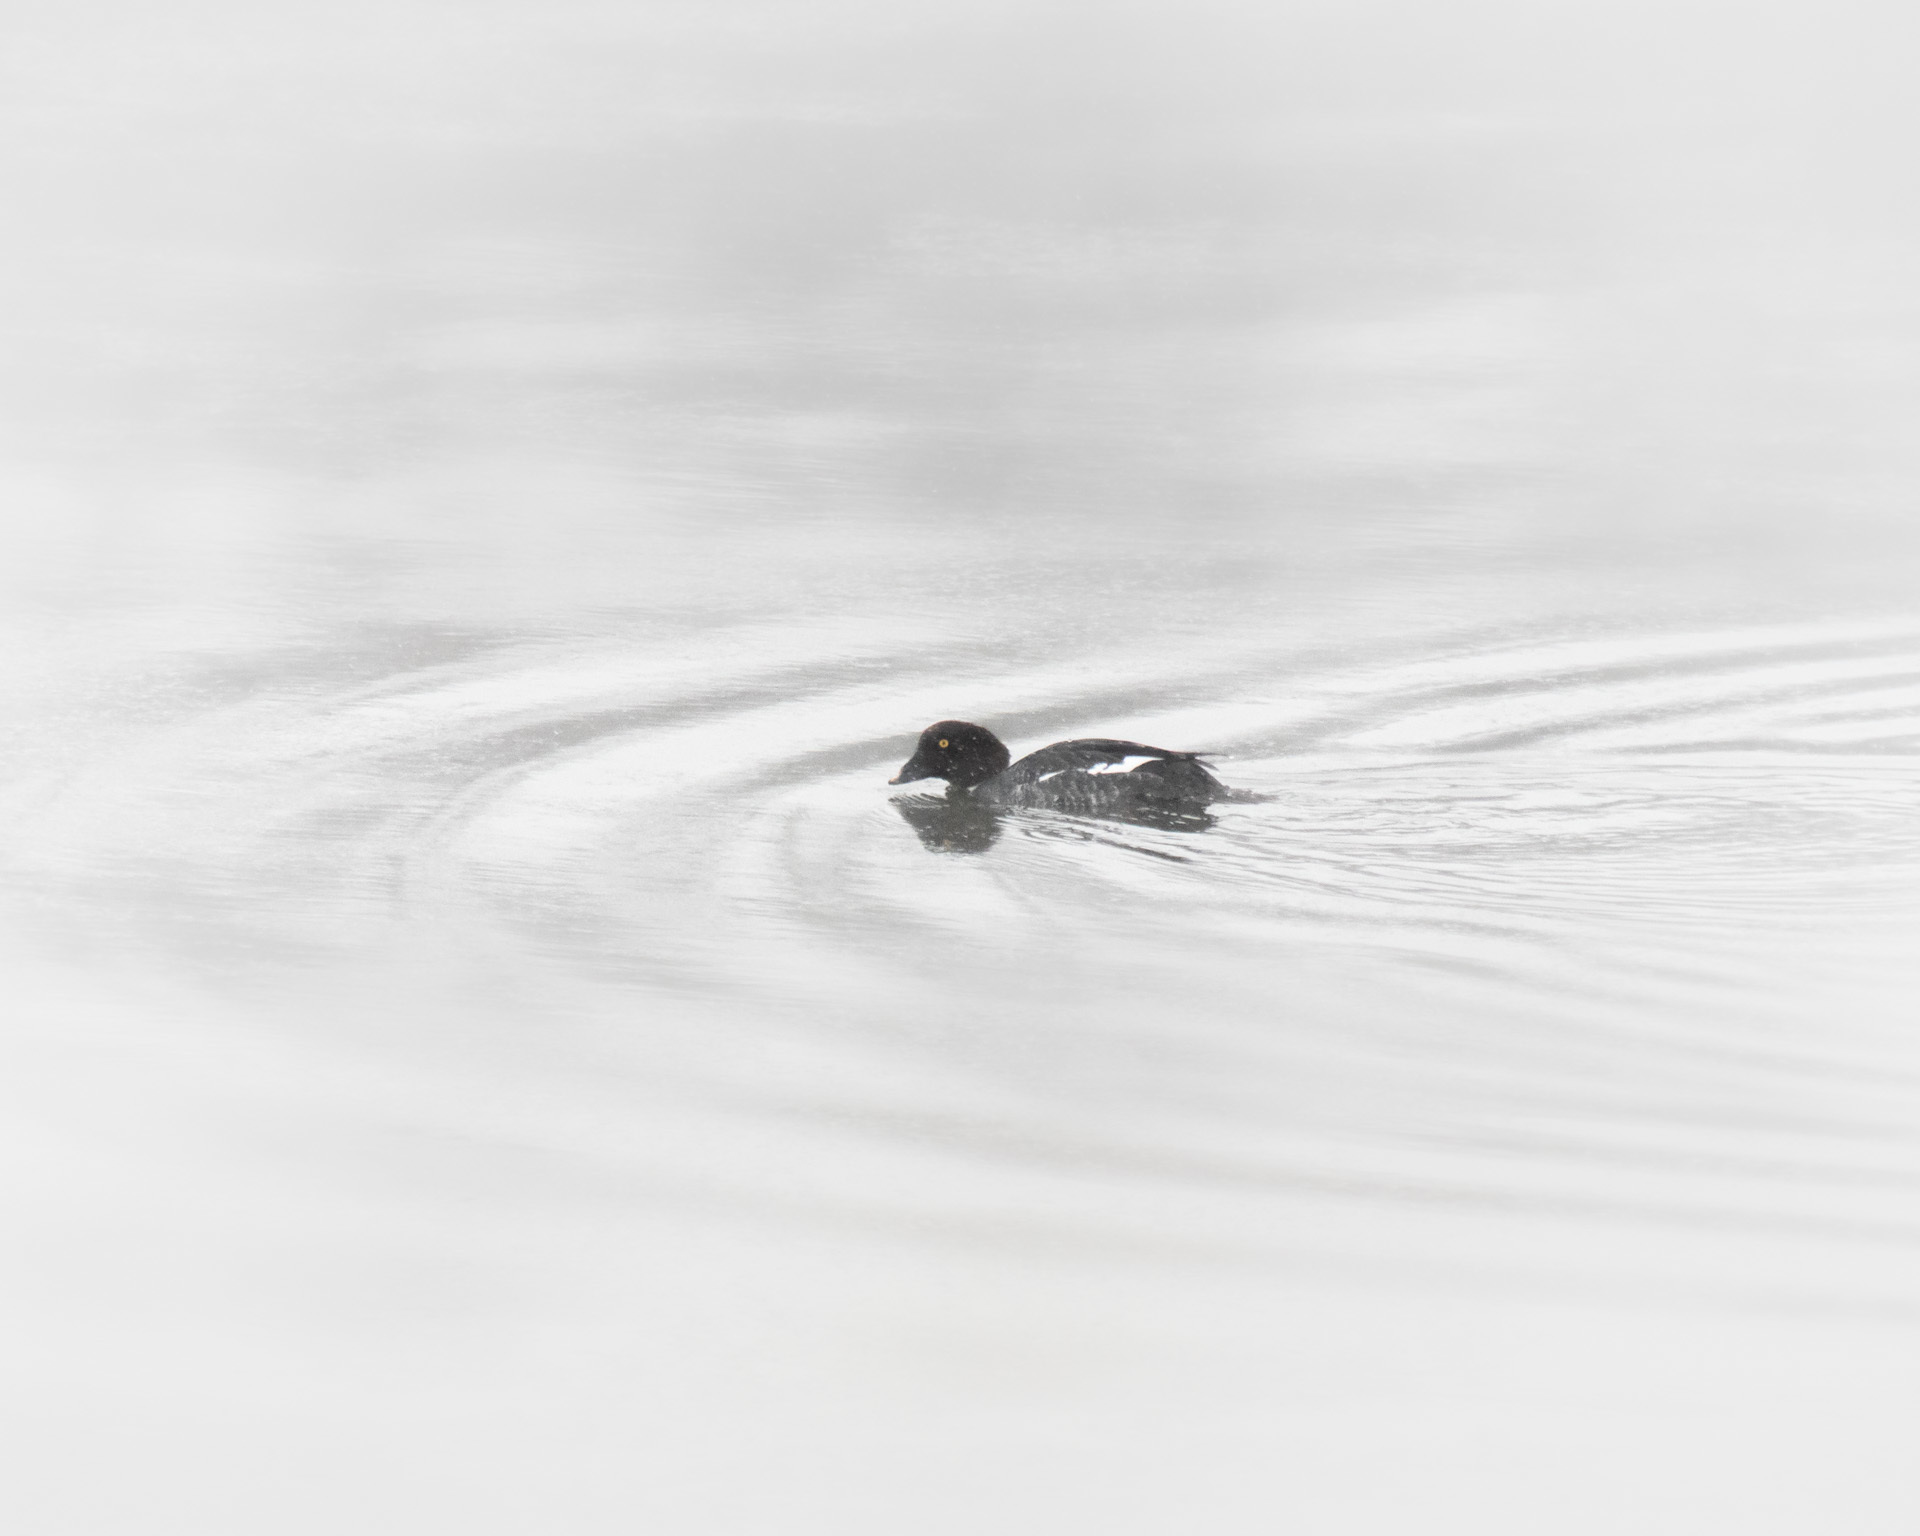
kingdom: Animalia
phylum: Chordata
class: Aves
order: Anseriformes
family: Anatidae
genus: Bucephala
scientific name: Bucephala clangula
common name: Common goldeneye
